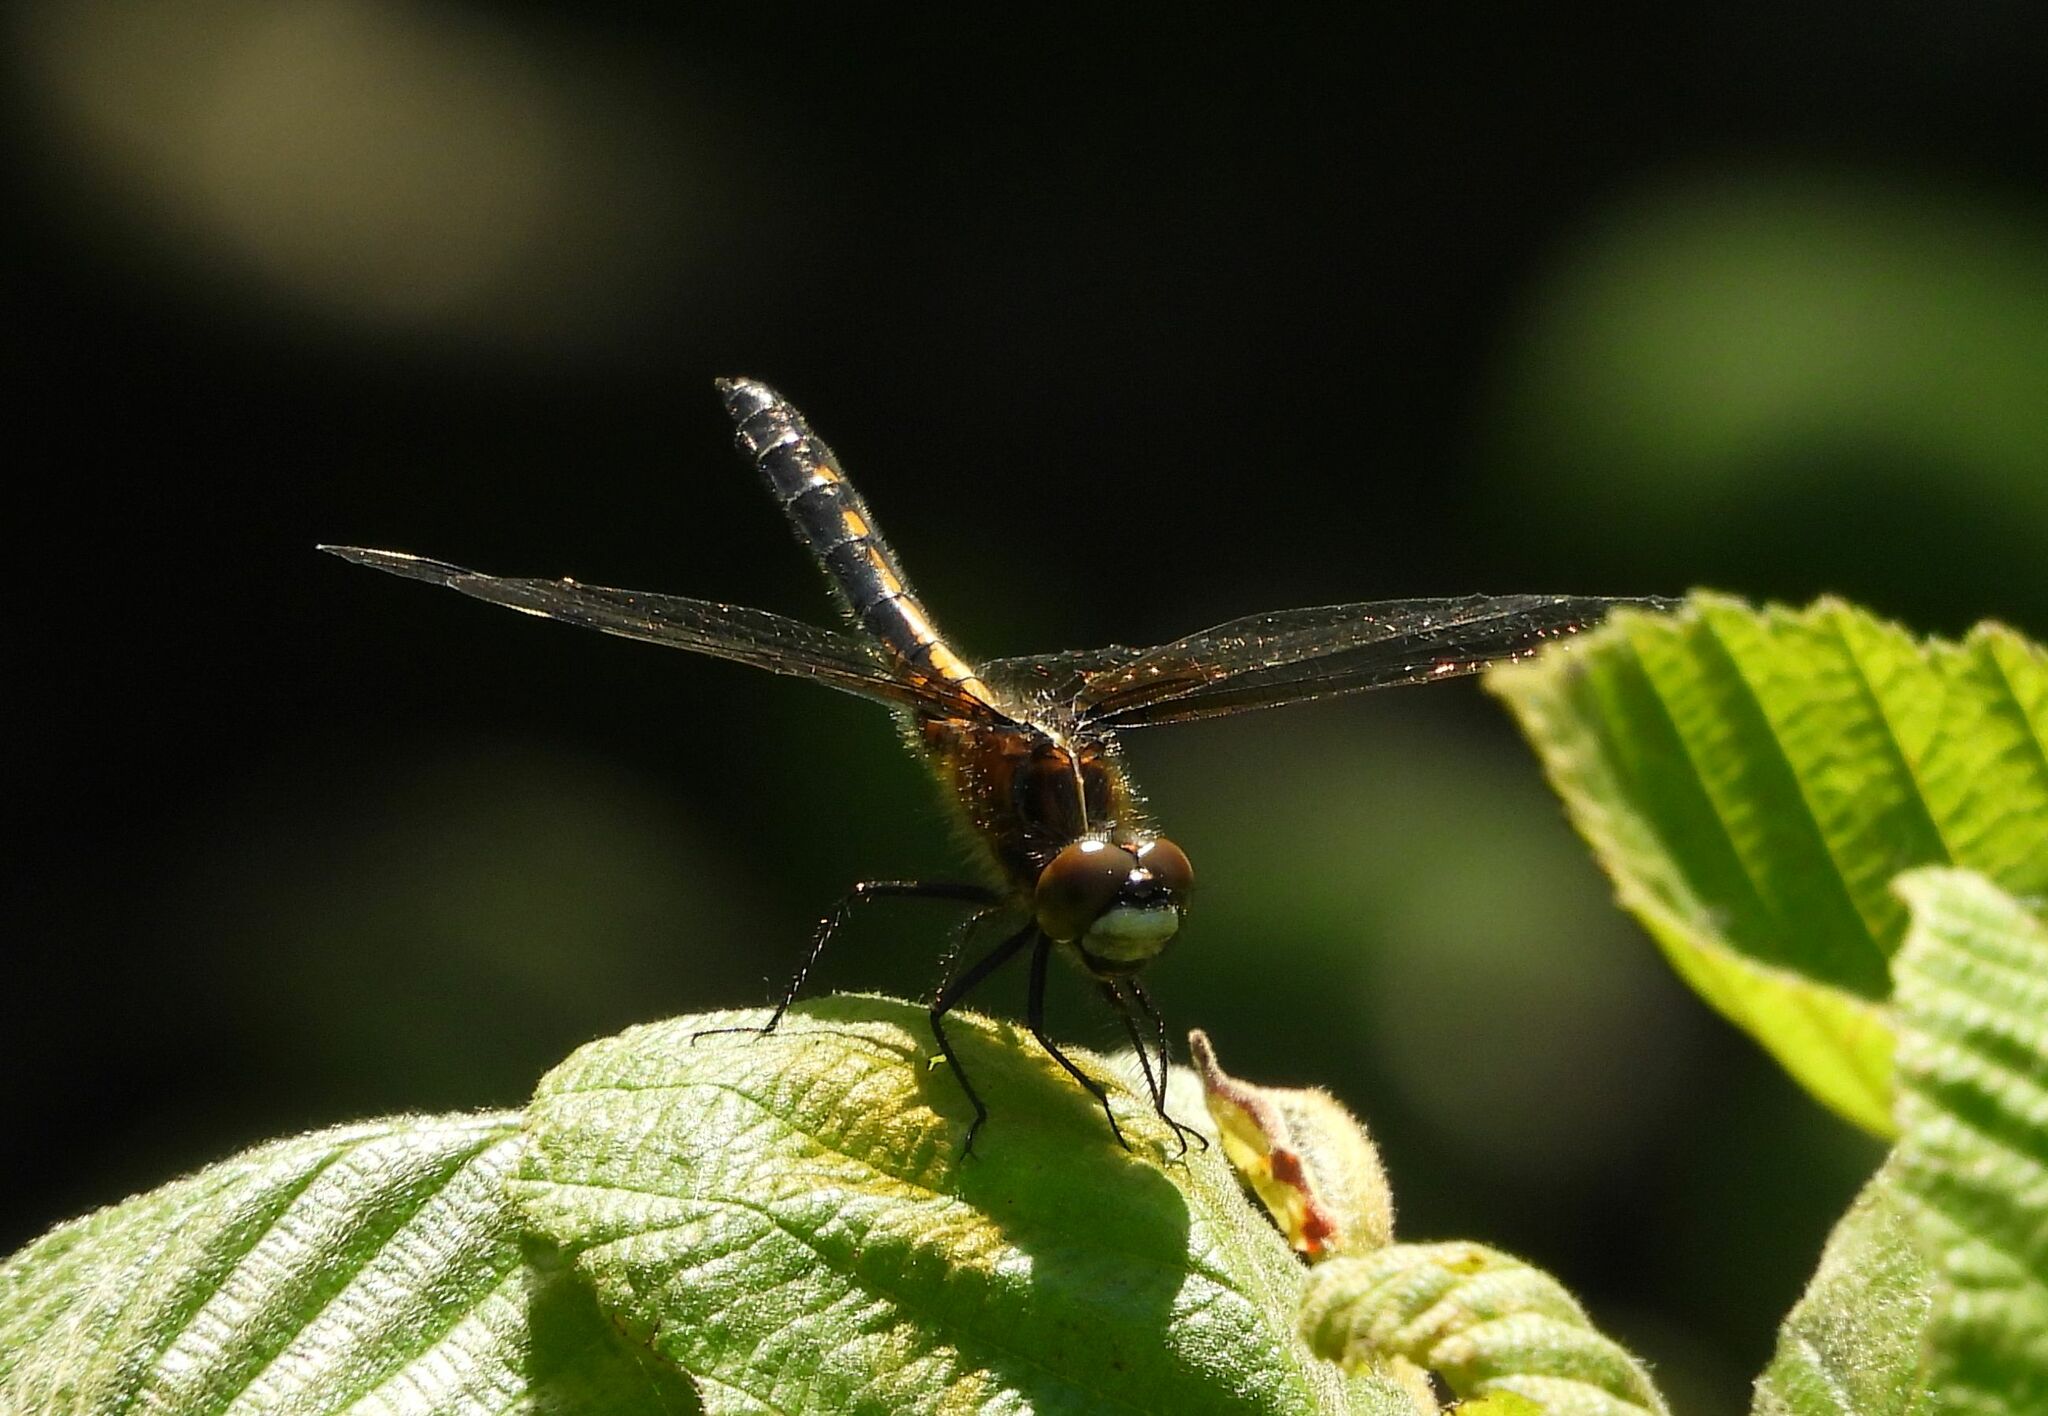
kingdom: Animalia
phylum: Arthropoda
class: Insecta
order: Odonata
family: Libellulidae
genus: Leucorrhinia
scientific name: Leucorrhinia intacta
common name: Dot-tailed whiteface
